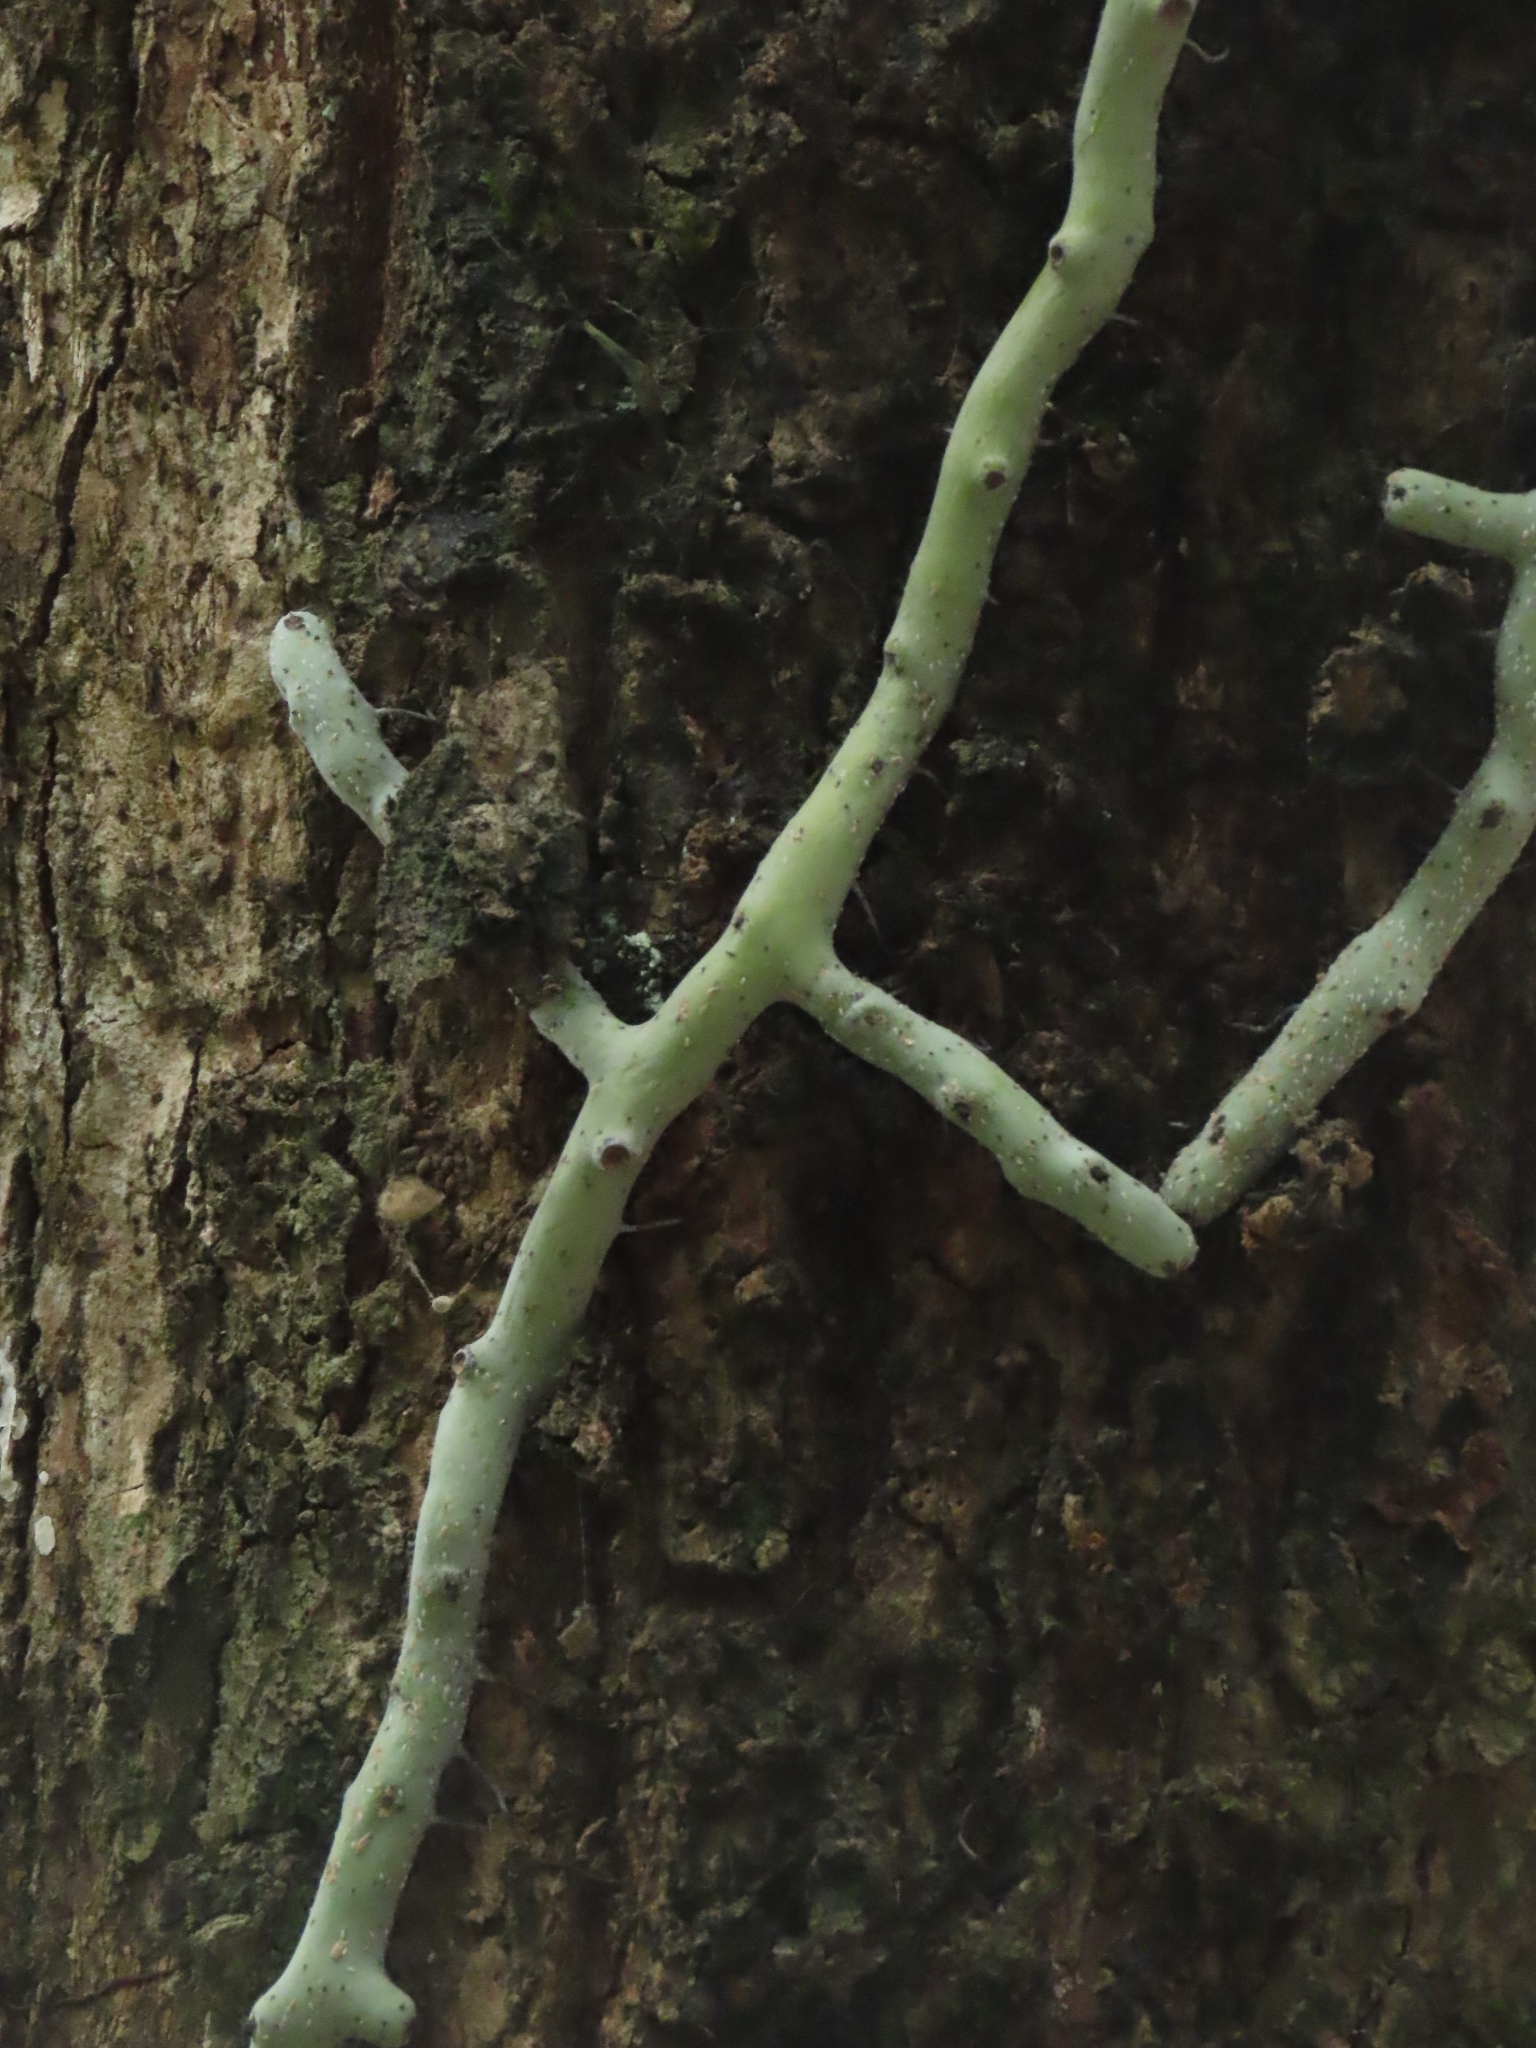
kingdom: Plantae
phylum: Tracheophyta
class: Polypodiopsida
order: Polypodiales
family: Polypodiaceae
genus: Goniophlebium
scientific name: Goniophlebium formosanum
